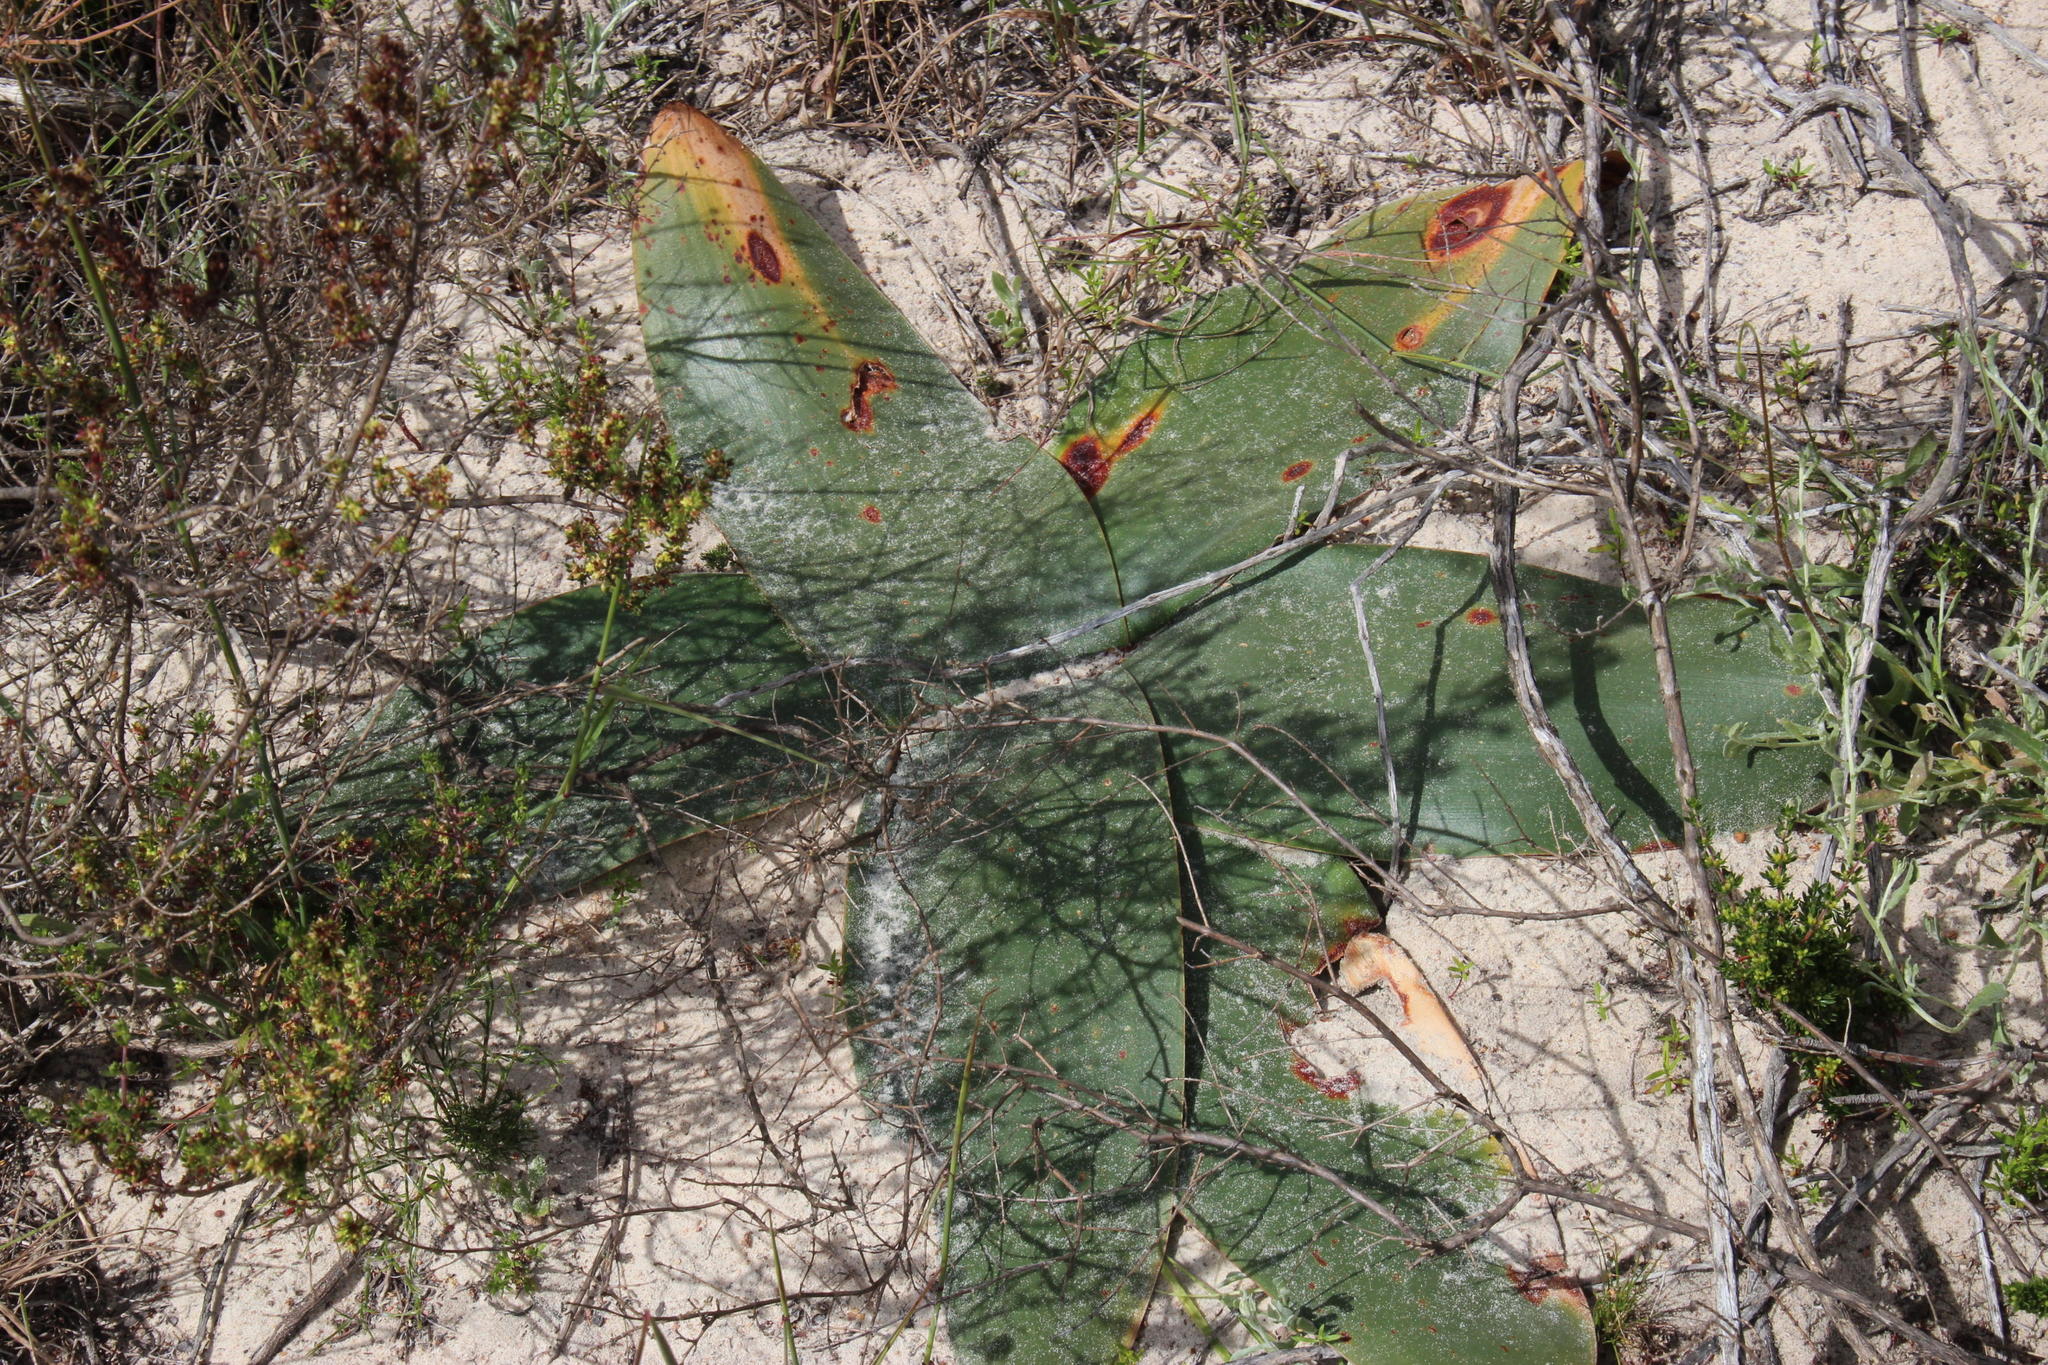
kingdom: Plantae
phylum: Tracheophyta
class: Liliopsida
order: Asparagales
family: Amaryllidaceae
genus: Brunsvigia
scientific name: Brunsvigia orientalis
